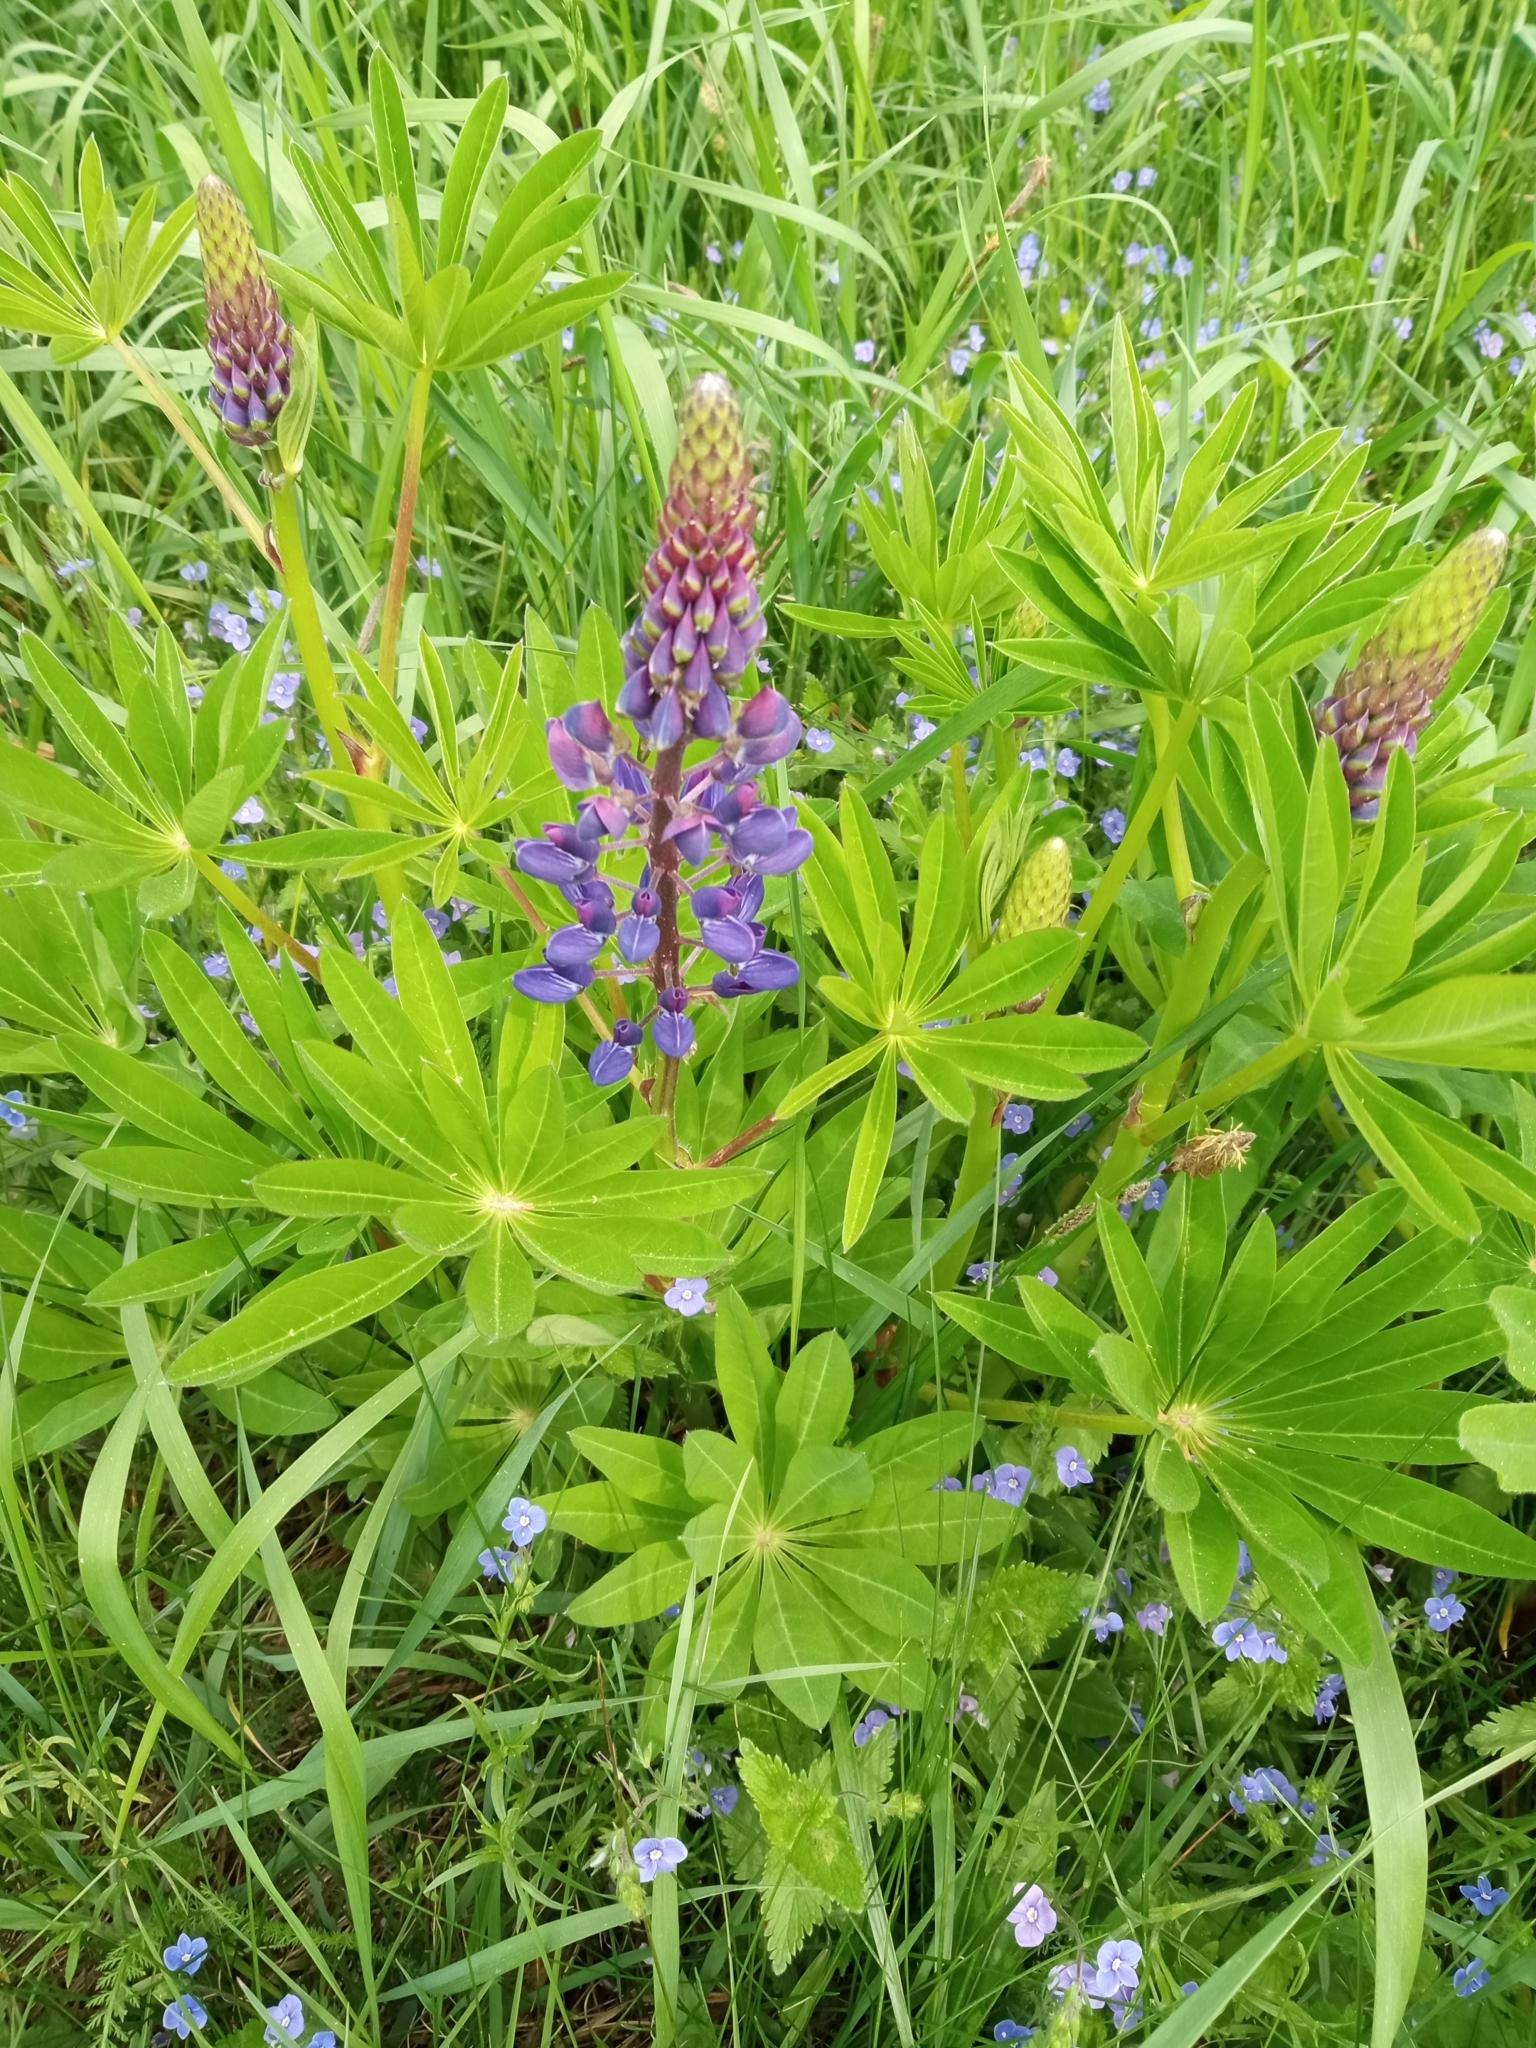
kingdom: Plantae
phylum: Tracheophyta
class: Magnoliopsida
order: Fabales
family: Fabaceae
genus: Lupinus
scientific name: Lupinus polyphyllus
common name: Garden lupin
